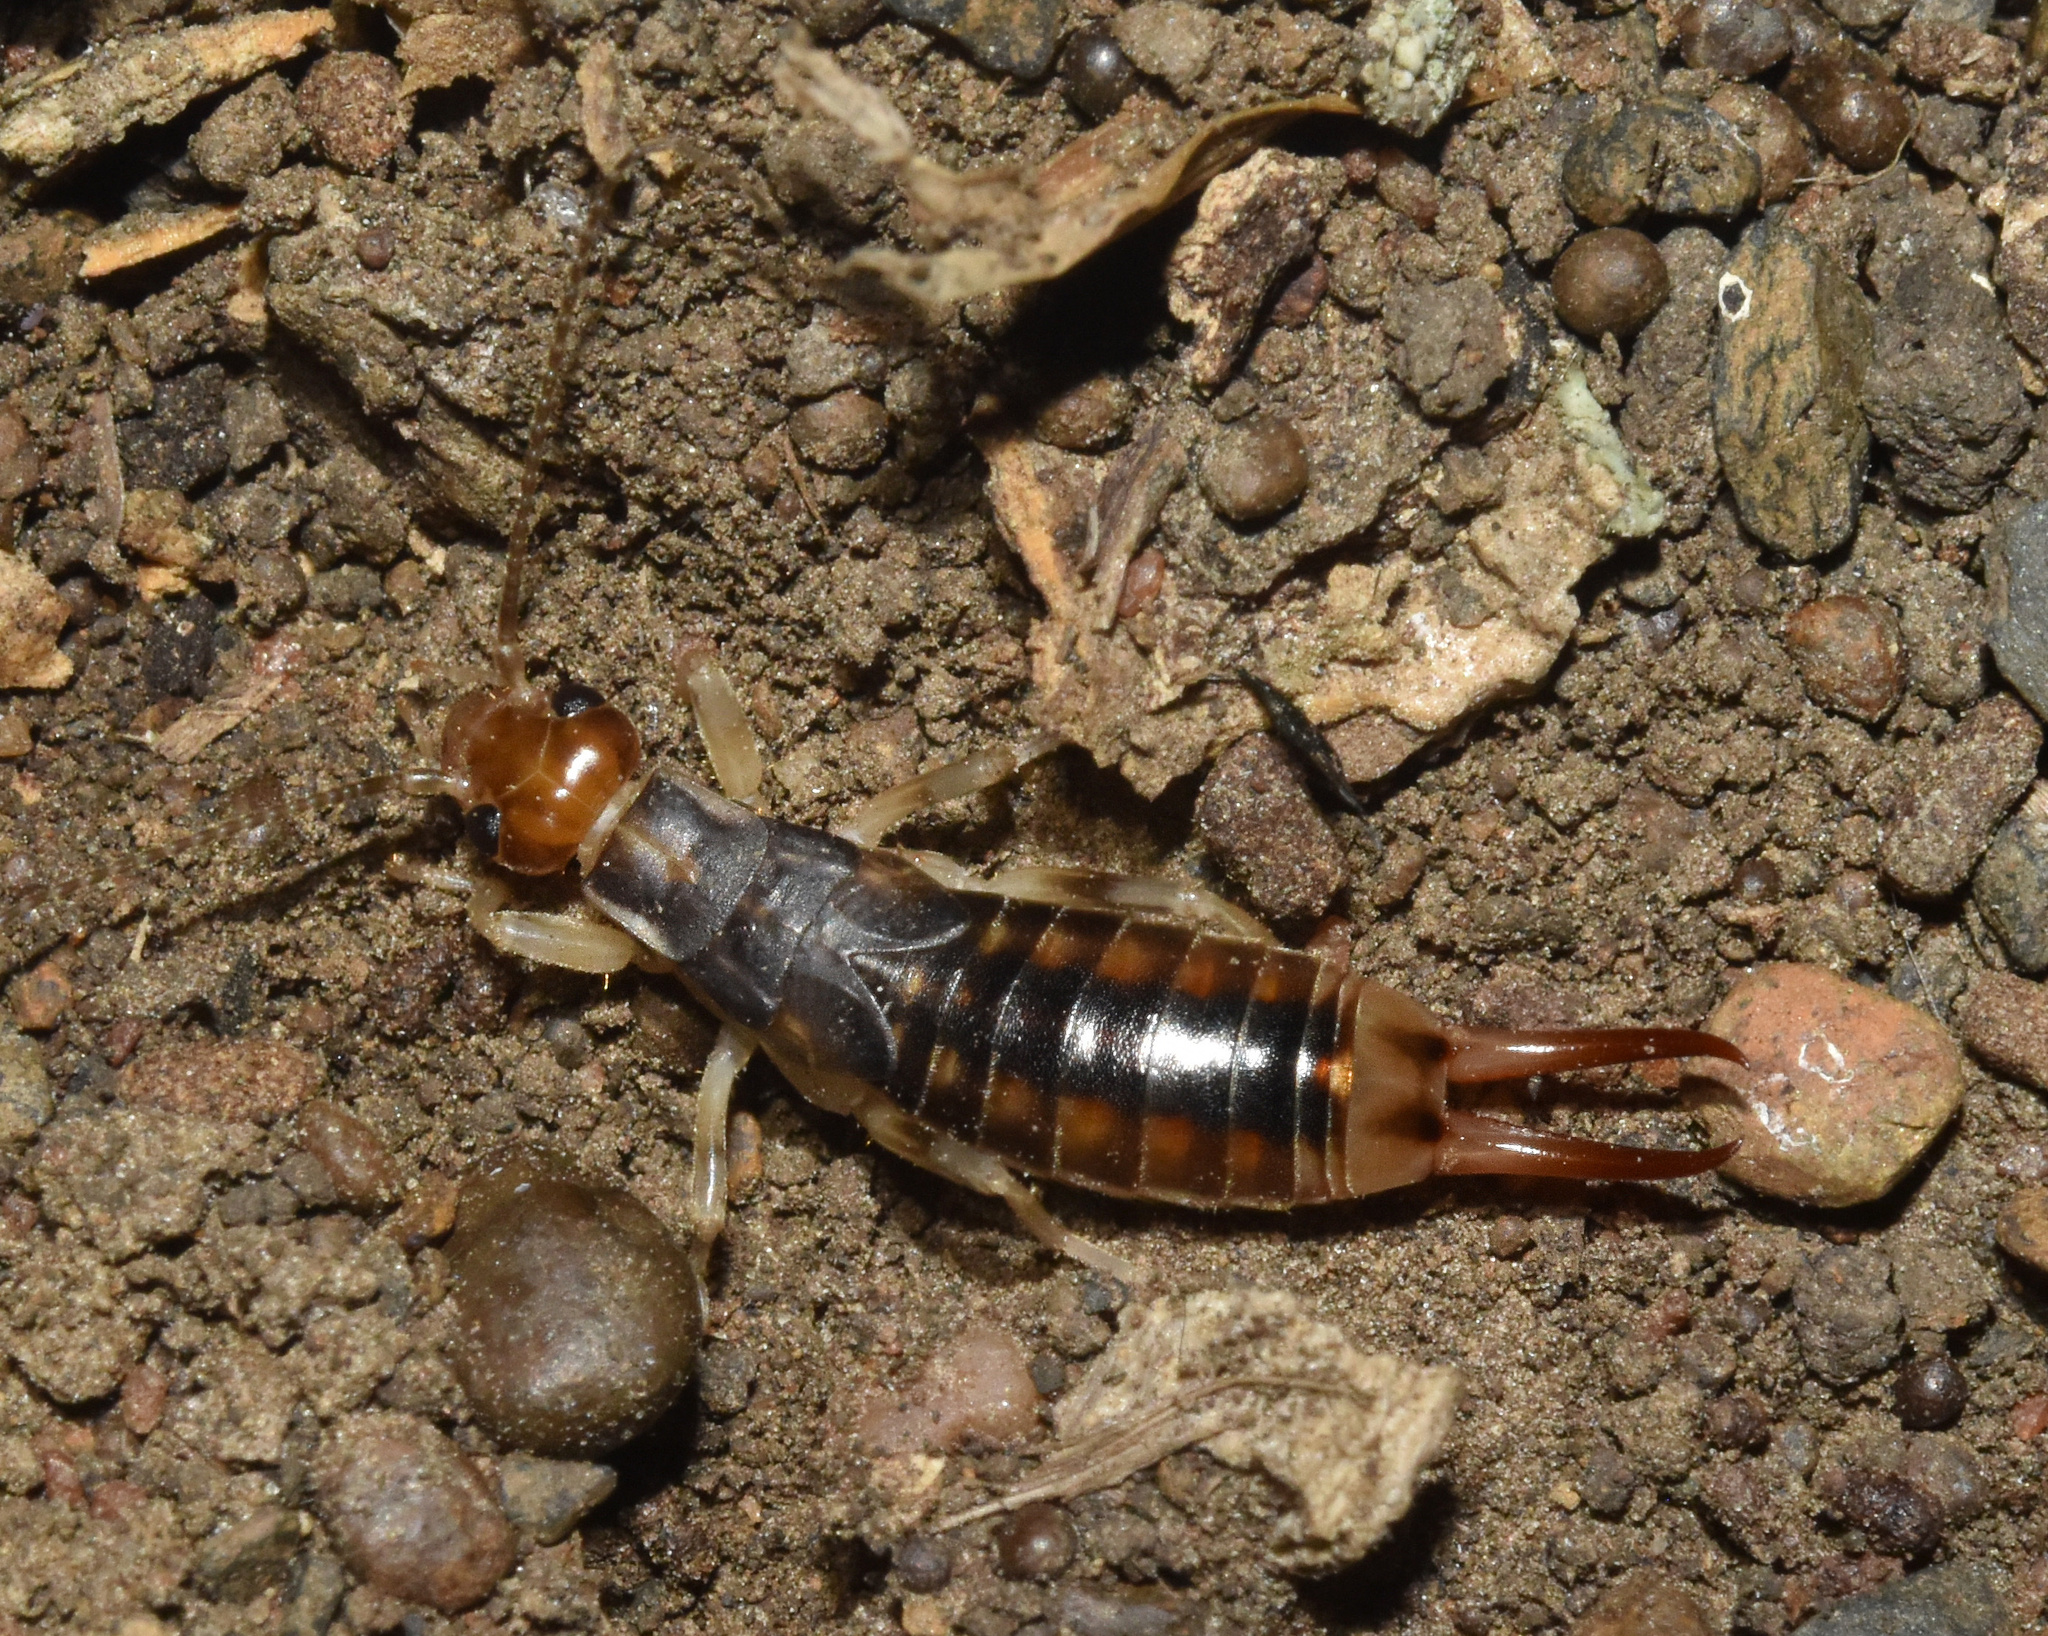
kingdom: Animalia
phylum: Arthropoda
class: Insecta
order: Dermaptera
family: Labiduridae
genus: Labidura
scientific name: Labidura riparia
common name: Striped earwig
